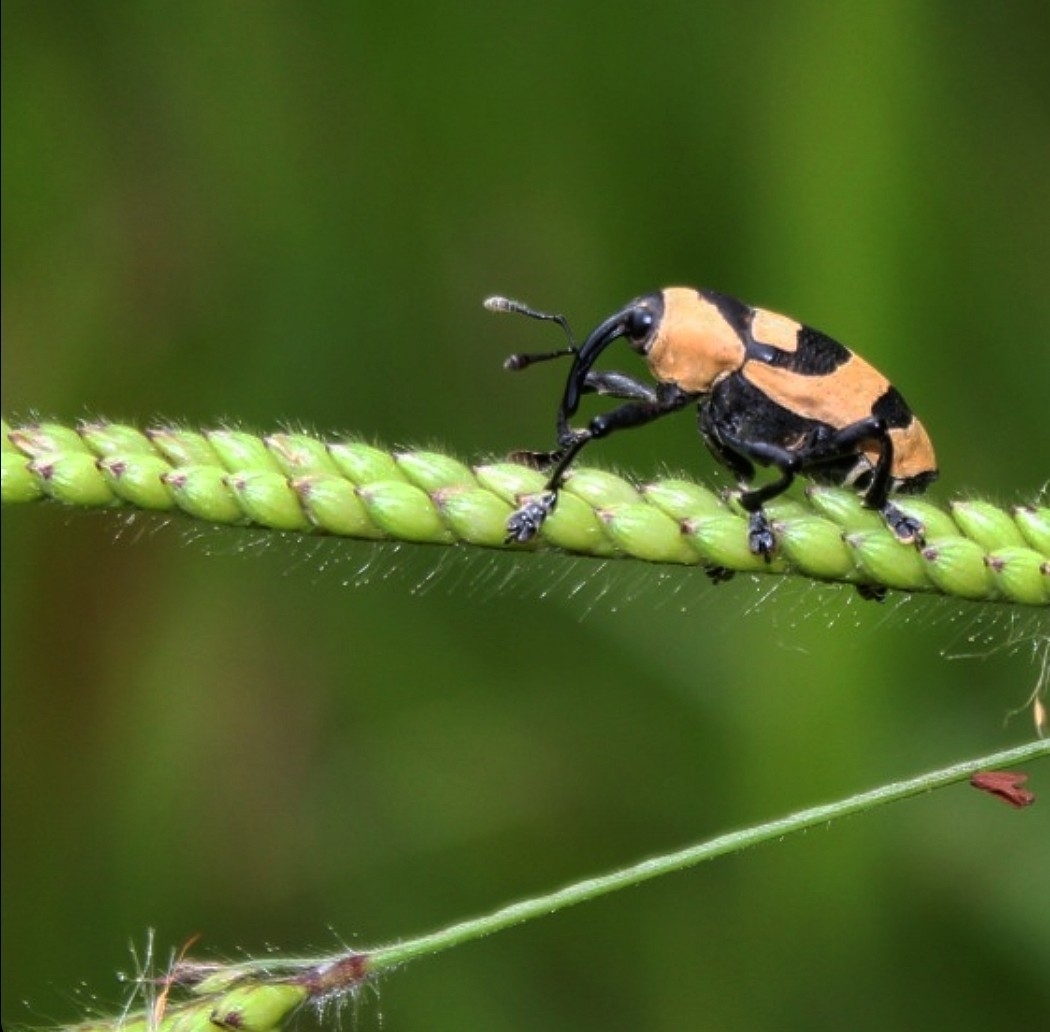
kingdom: Animalia
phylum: Arthropoda
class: Insecta
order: Coleoptera
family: Curculionidae
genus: Cholus
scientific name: Cholus annulatus
